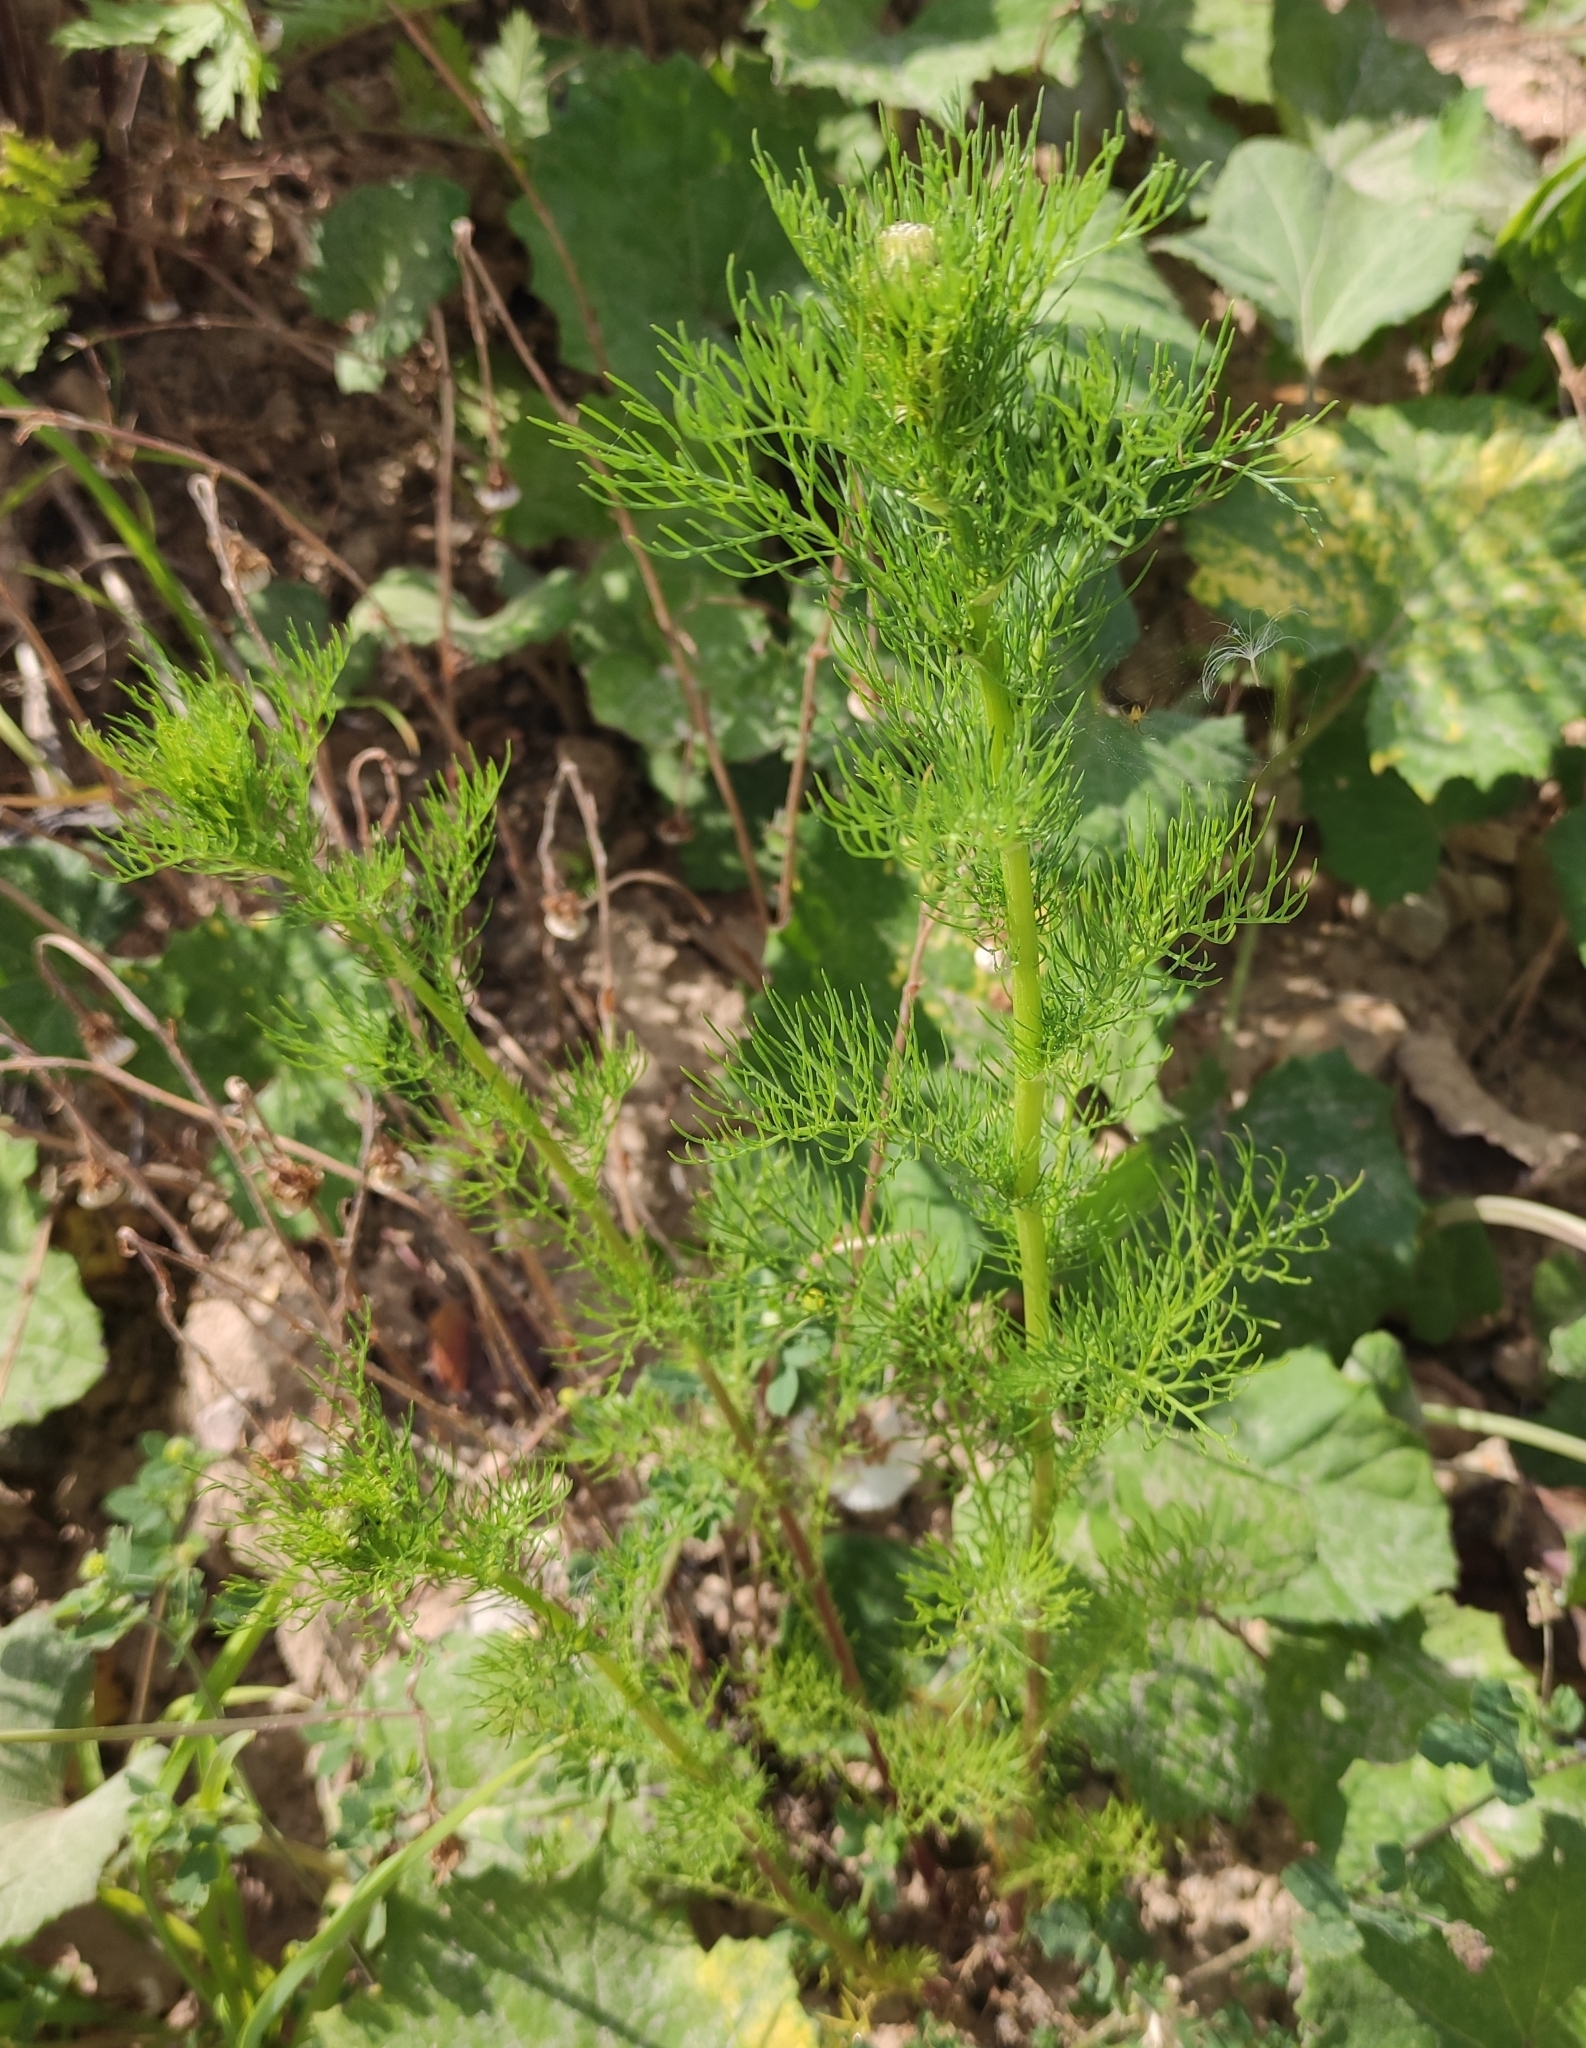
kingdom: Plantae
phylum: Tracheophyta
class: Magnoliopsida
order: Asterales
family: Asteraceae
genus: Tripleurospermum
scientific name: Tripleurospermum inodorum
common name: Scentless mayweed
